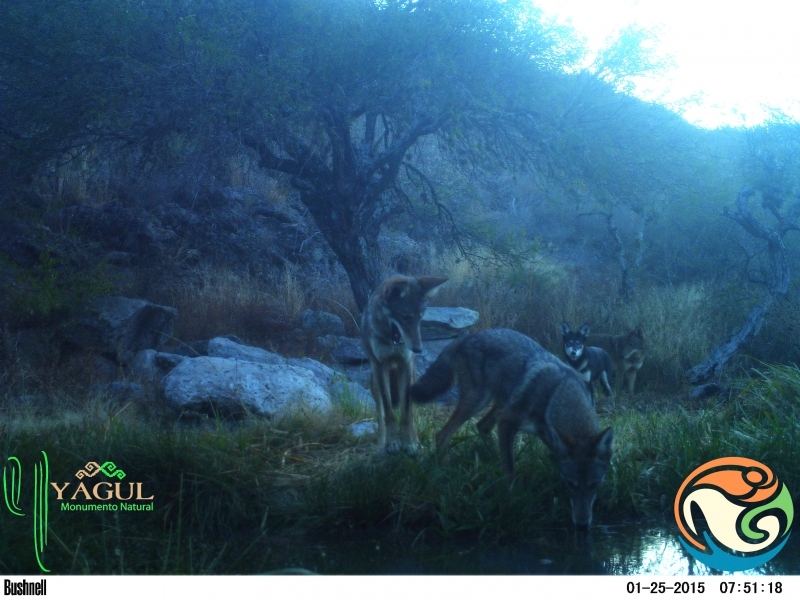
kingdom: Animalia
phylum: Chordata
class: Mammalia
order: Carnivora
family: Canidae
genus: Canis
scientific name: Canis latrans
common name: Coyote
